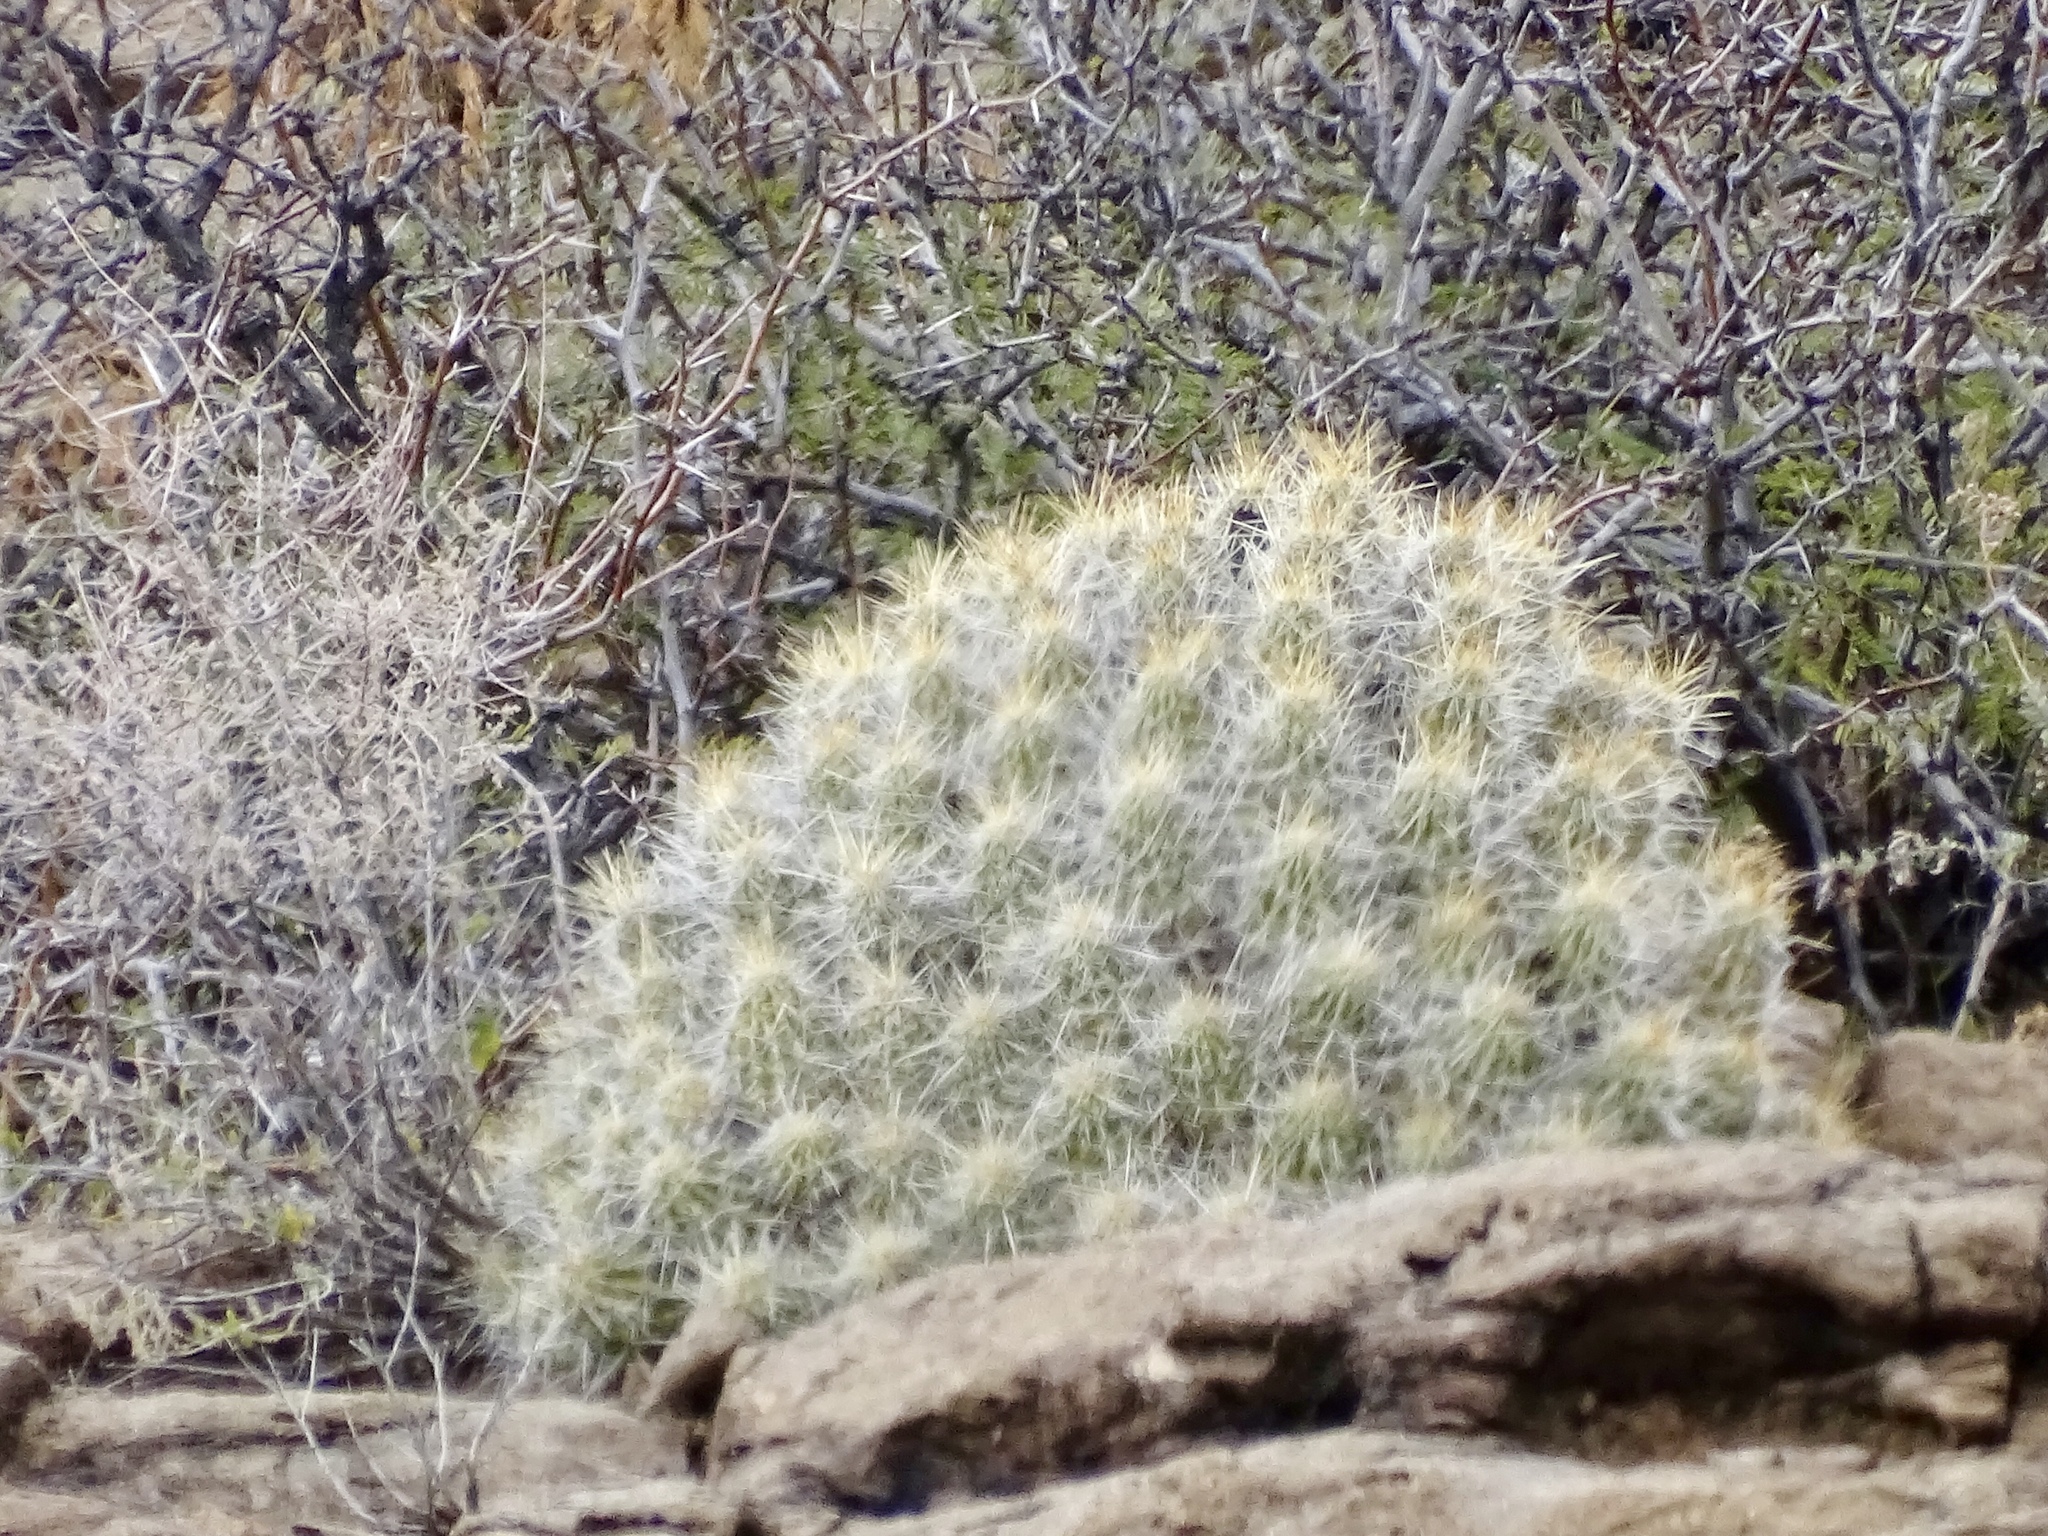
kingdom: Plantae
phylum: Tracheophyta
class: Magnoliopsida
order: Caryophyllales
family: Cactaceae
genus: Echinocereus
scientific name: Echinocereus stramineus
